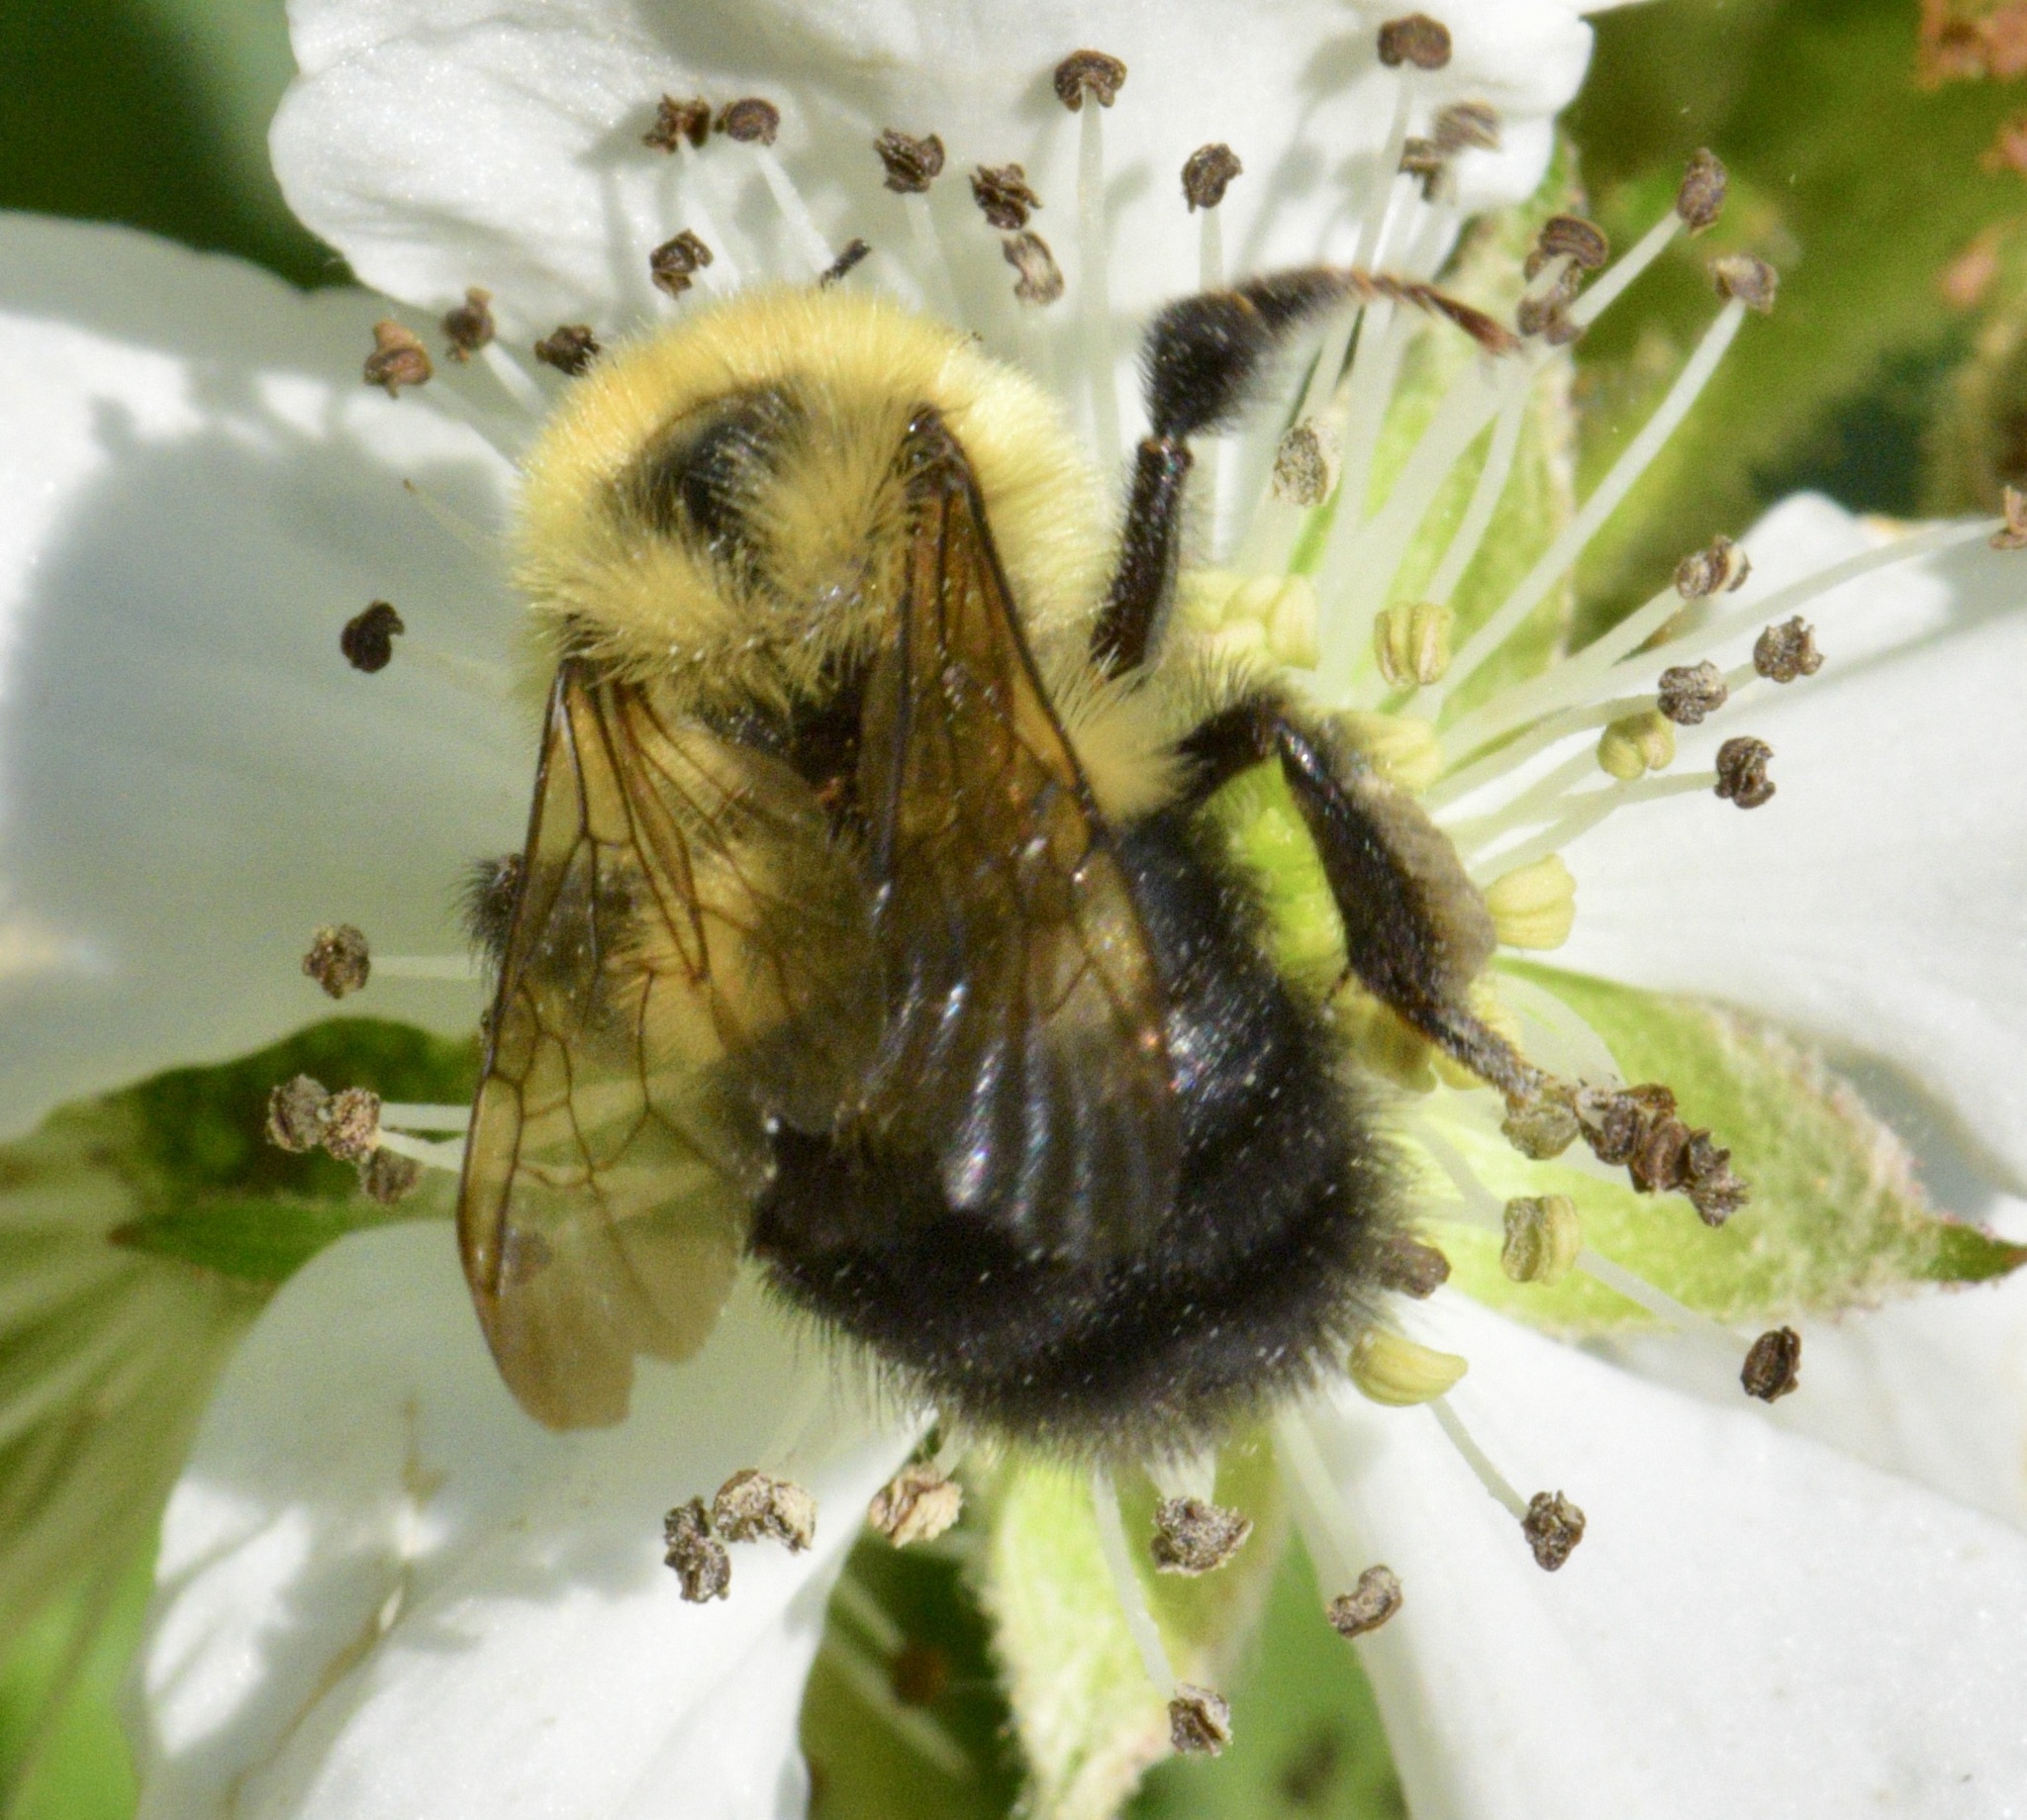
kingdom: Animalia
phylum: Arthropoda
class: Insecta
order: Hymenoptera
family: Apidae
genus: Bombus
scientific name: Bombus bimaculatus
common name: Two-spotted bumble bee
